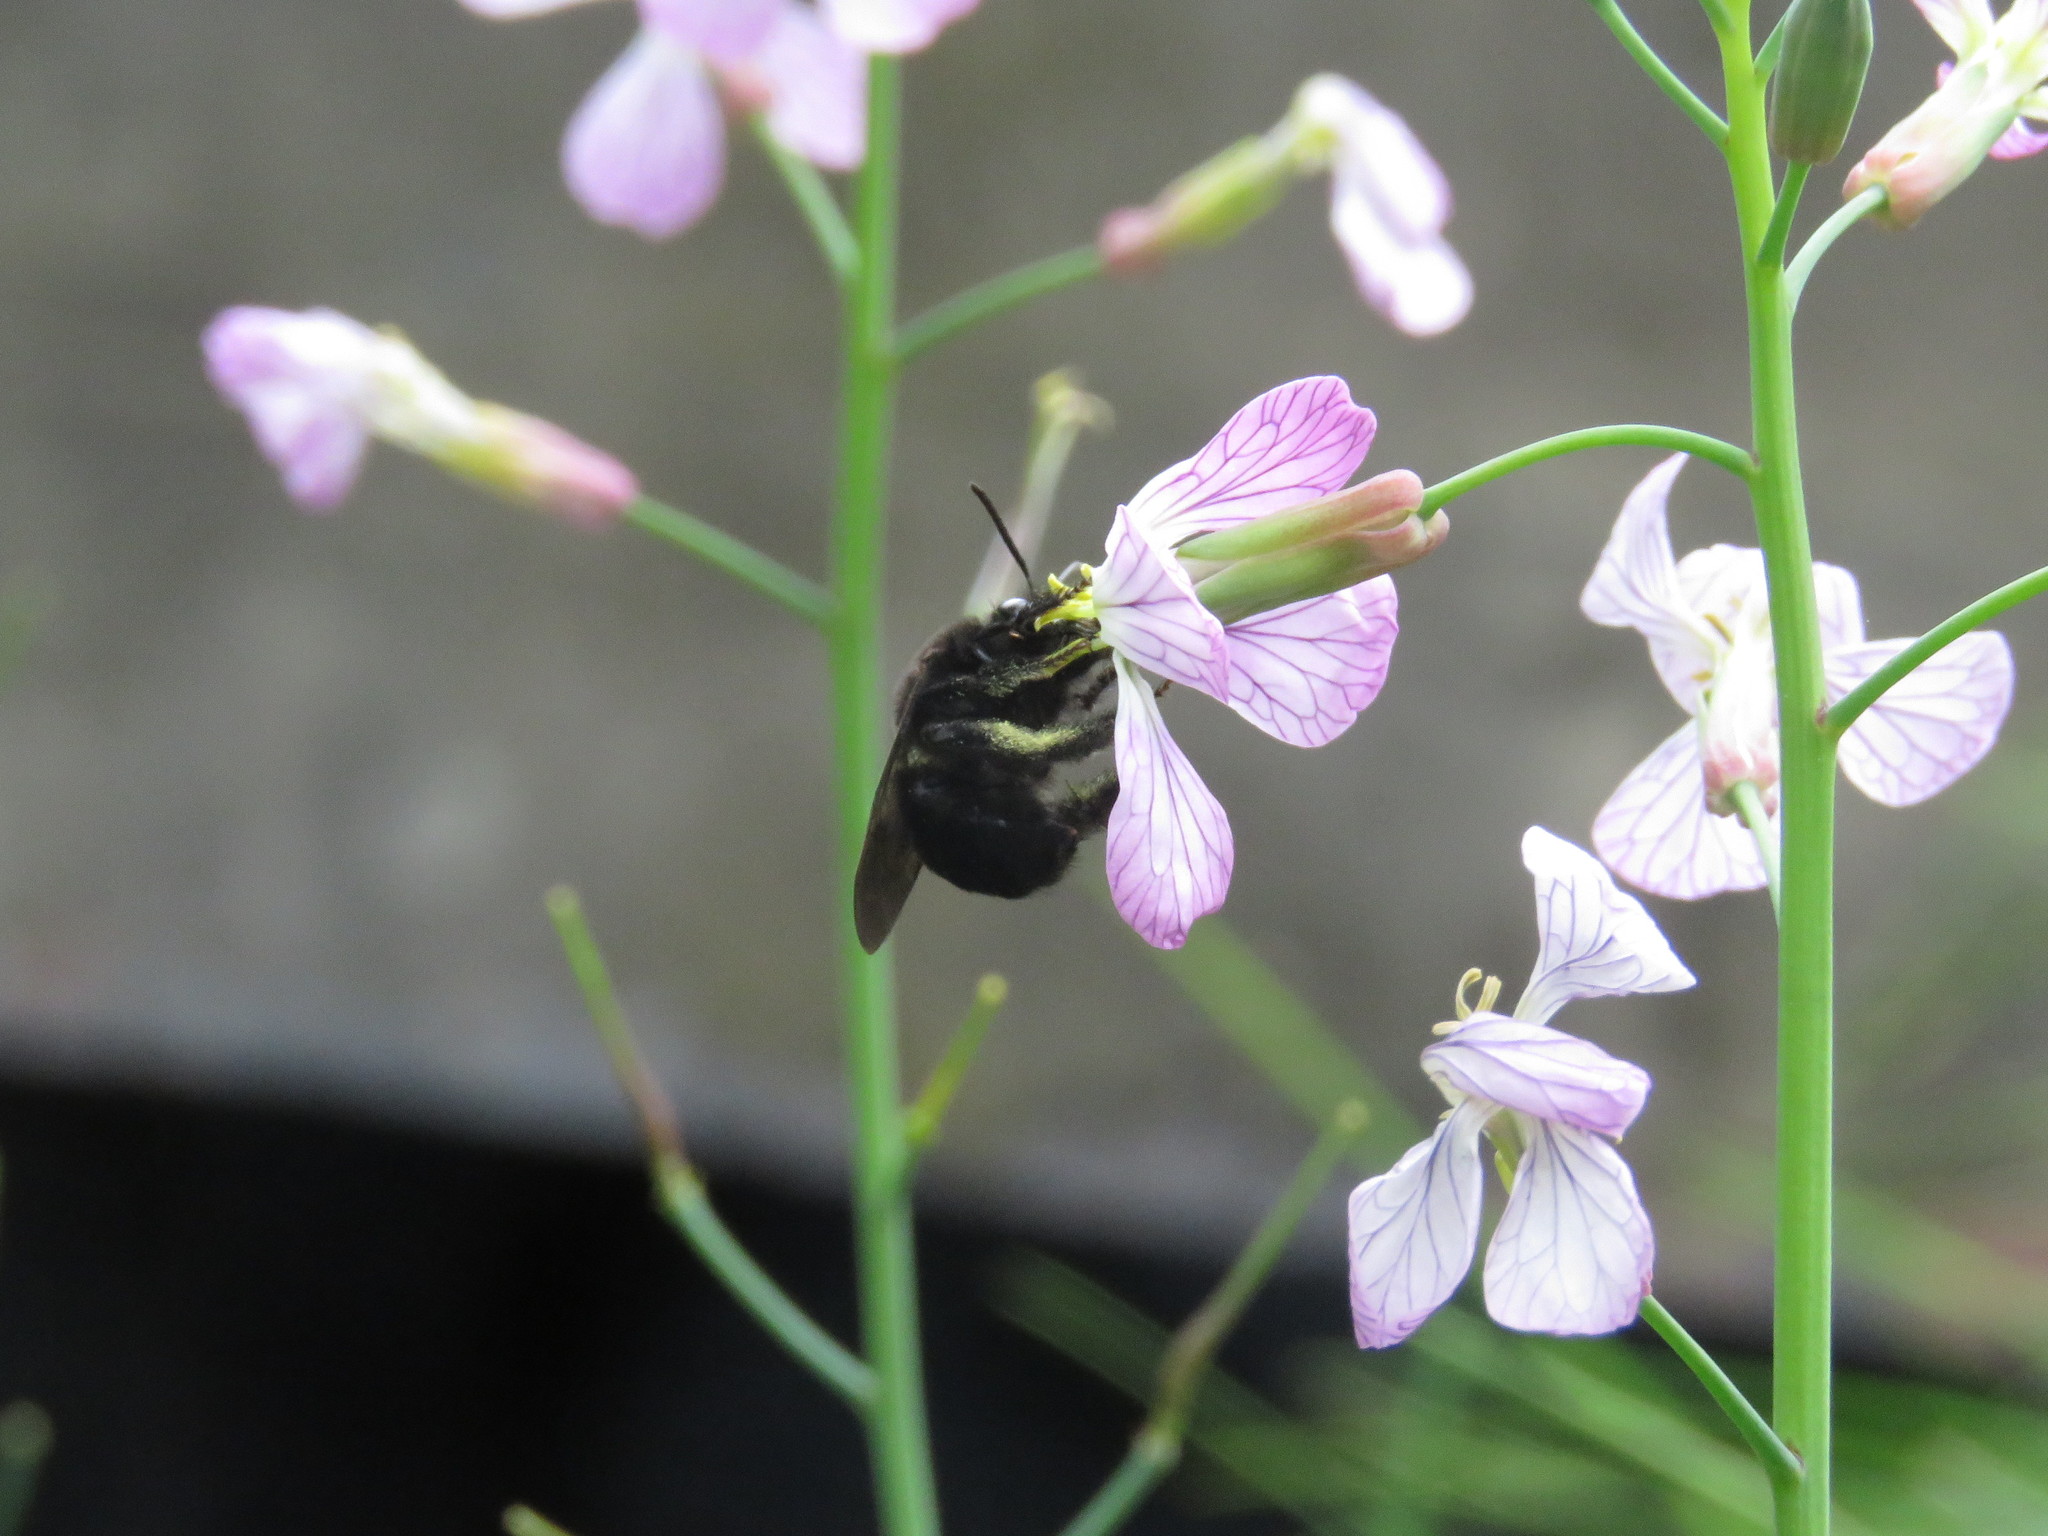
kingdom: Animalia
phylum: Arthropoda
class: Insecta
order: Hymenoptera
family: Apidae
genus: Thygater
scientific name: Thygater aethiops
